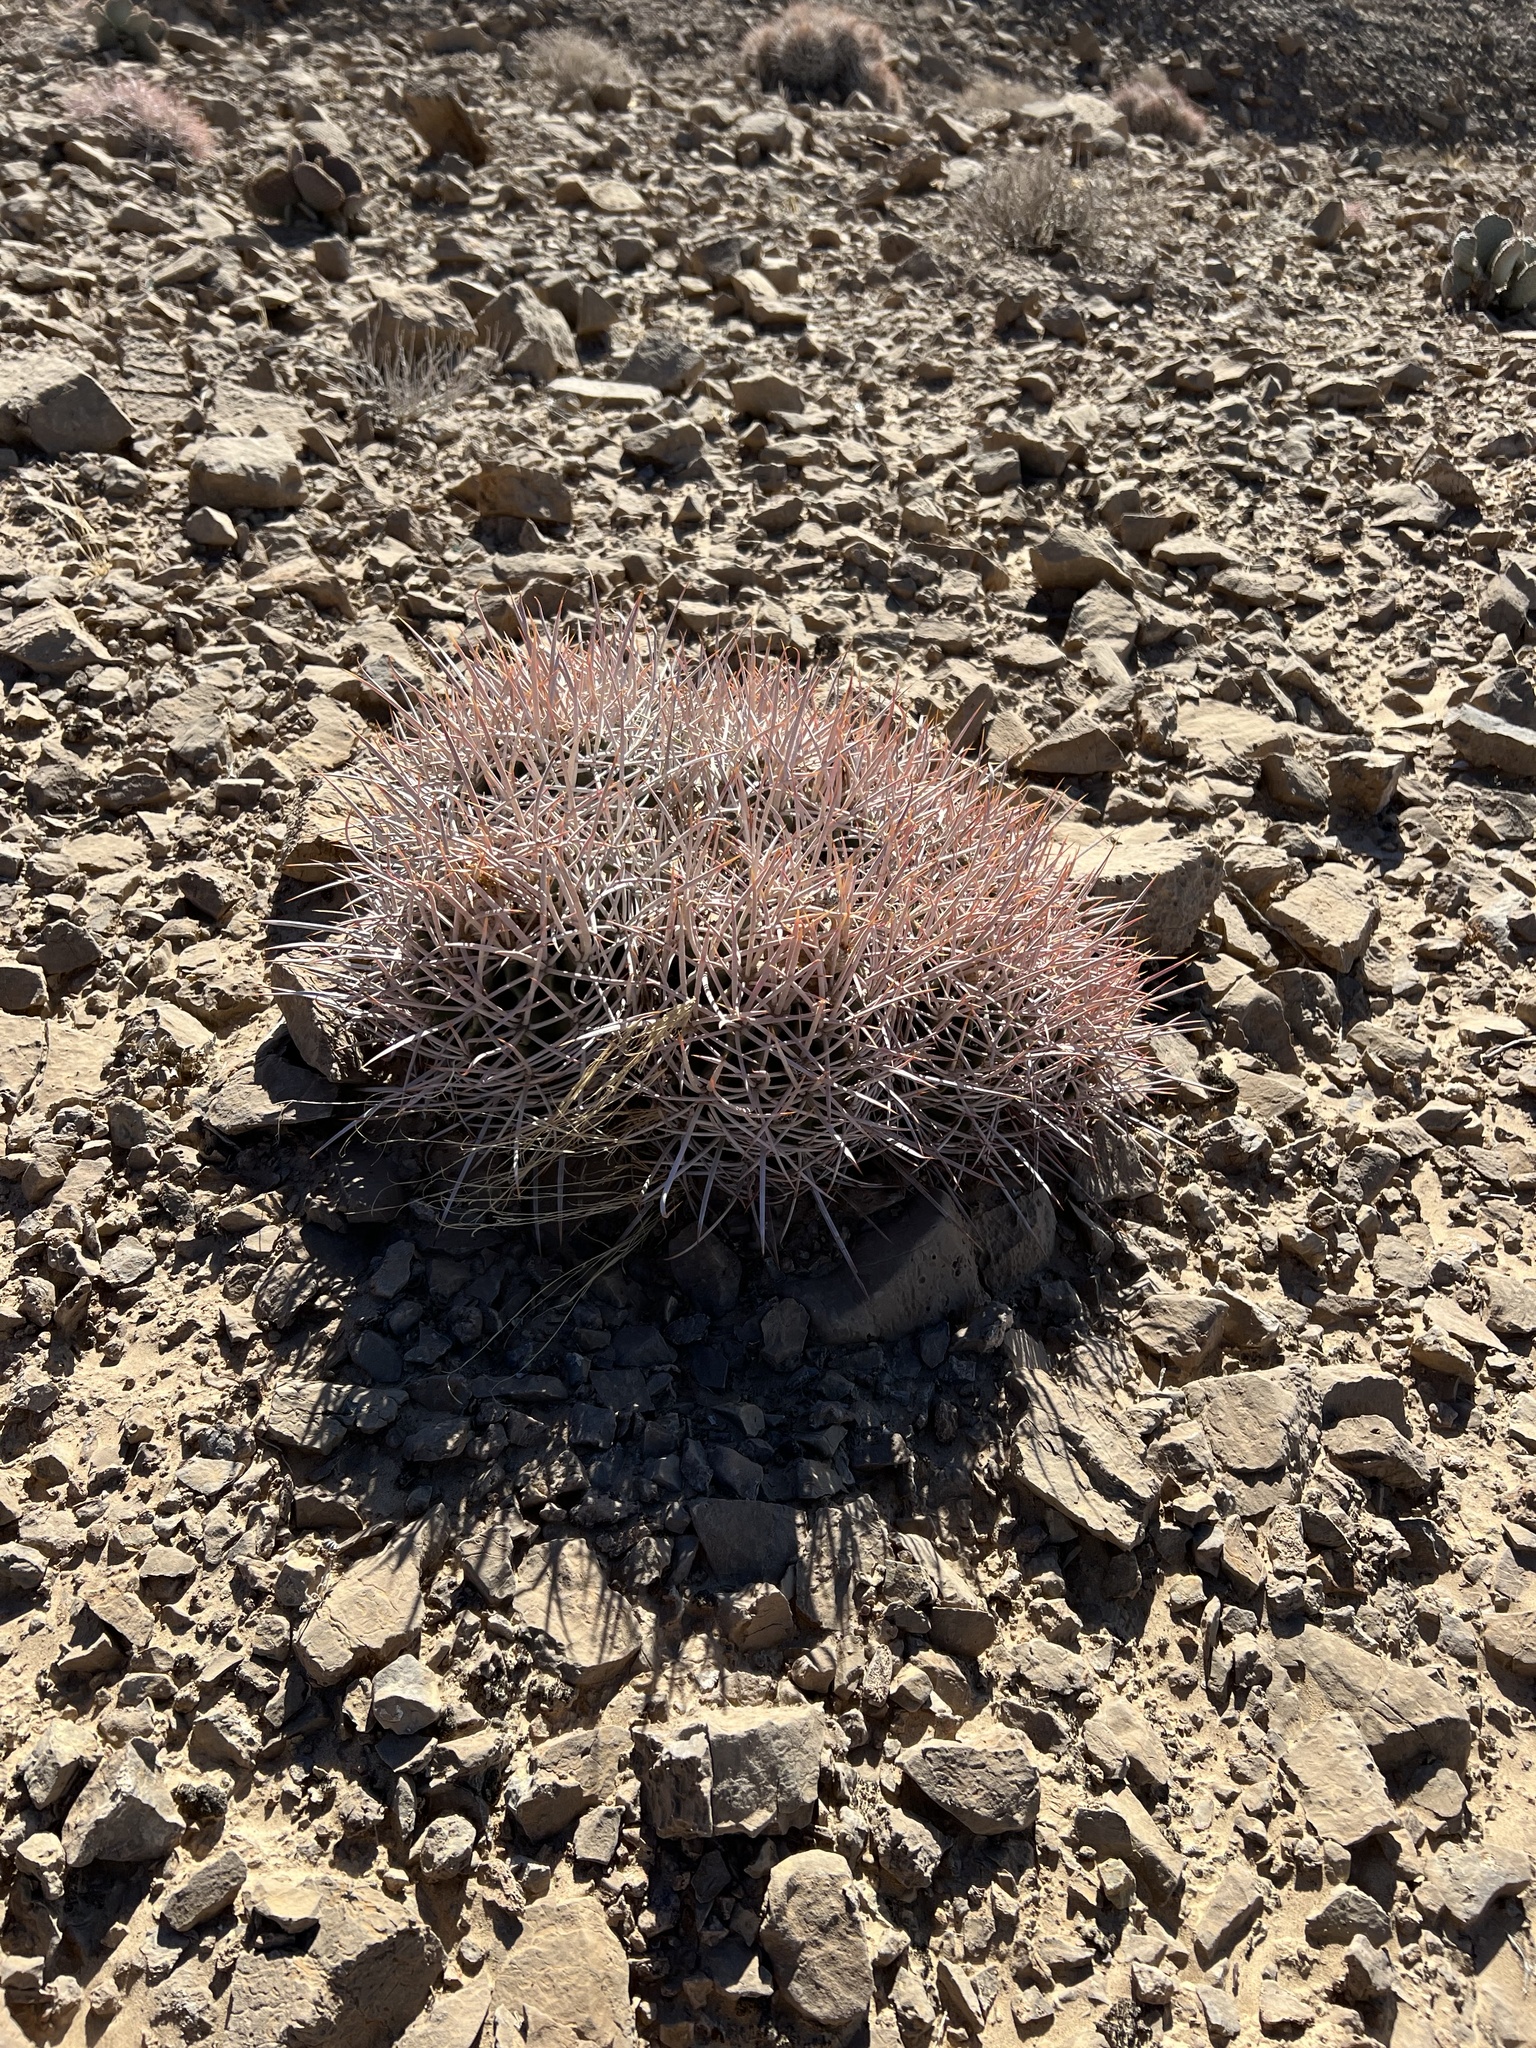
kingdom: Plantae
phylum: Tracheophyta
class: Magnoliopsida
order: Caryophyllales
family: Cactaceae
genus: Echinocactus
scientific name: Echinocactus polycephalus
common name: Cottontop cactus
